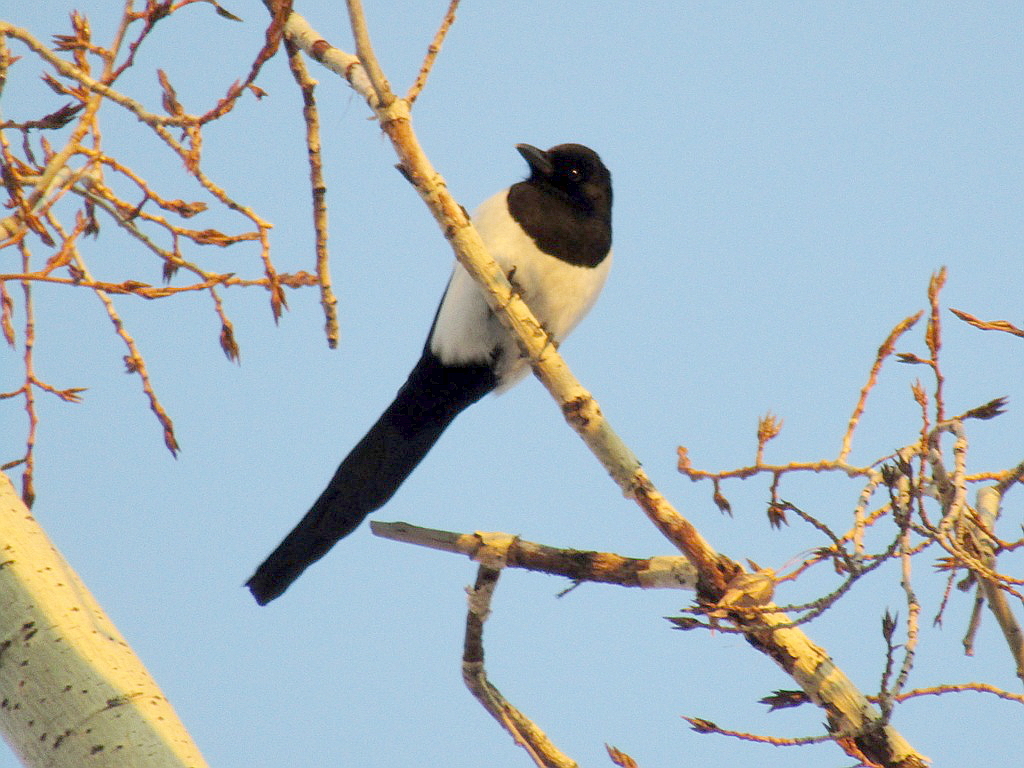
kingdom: Animalia
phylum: Chordata
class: Aves
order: Passeriformes
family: Corvidae
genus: Pica
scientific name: Pica pica
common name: Eurasian magpie
